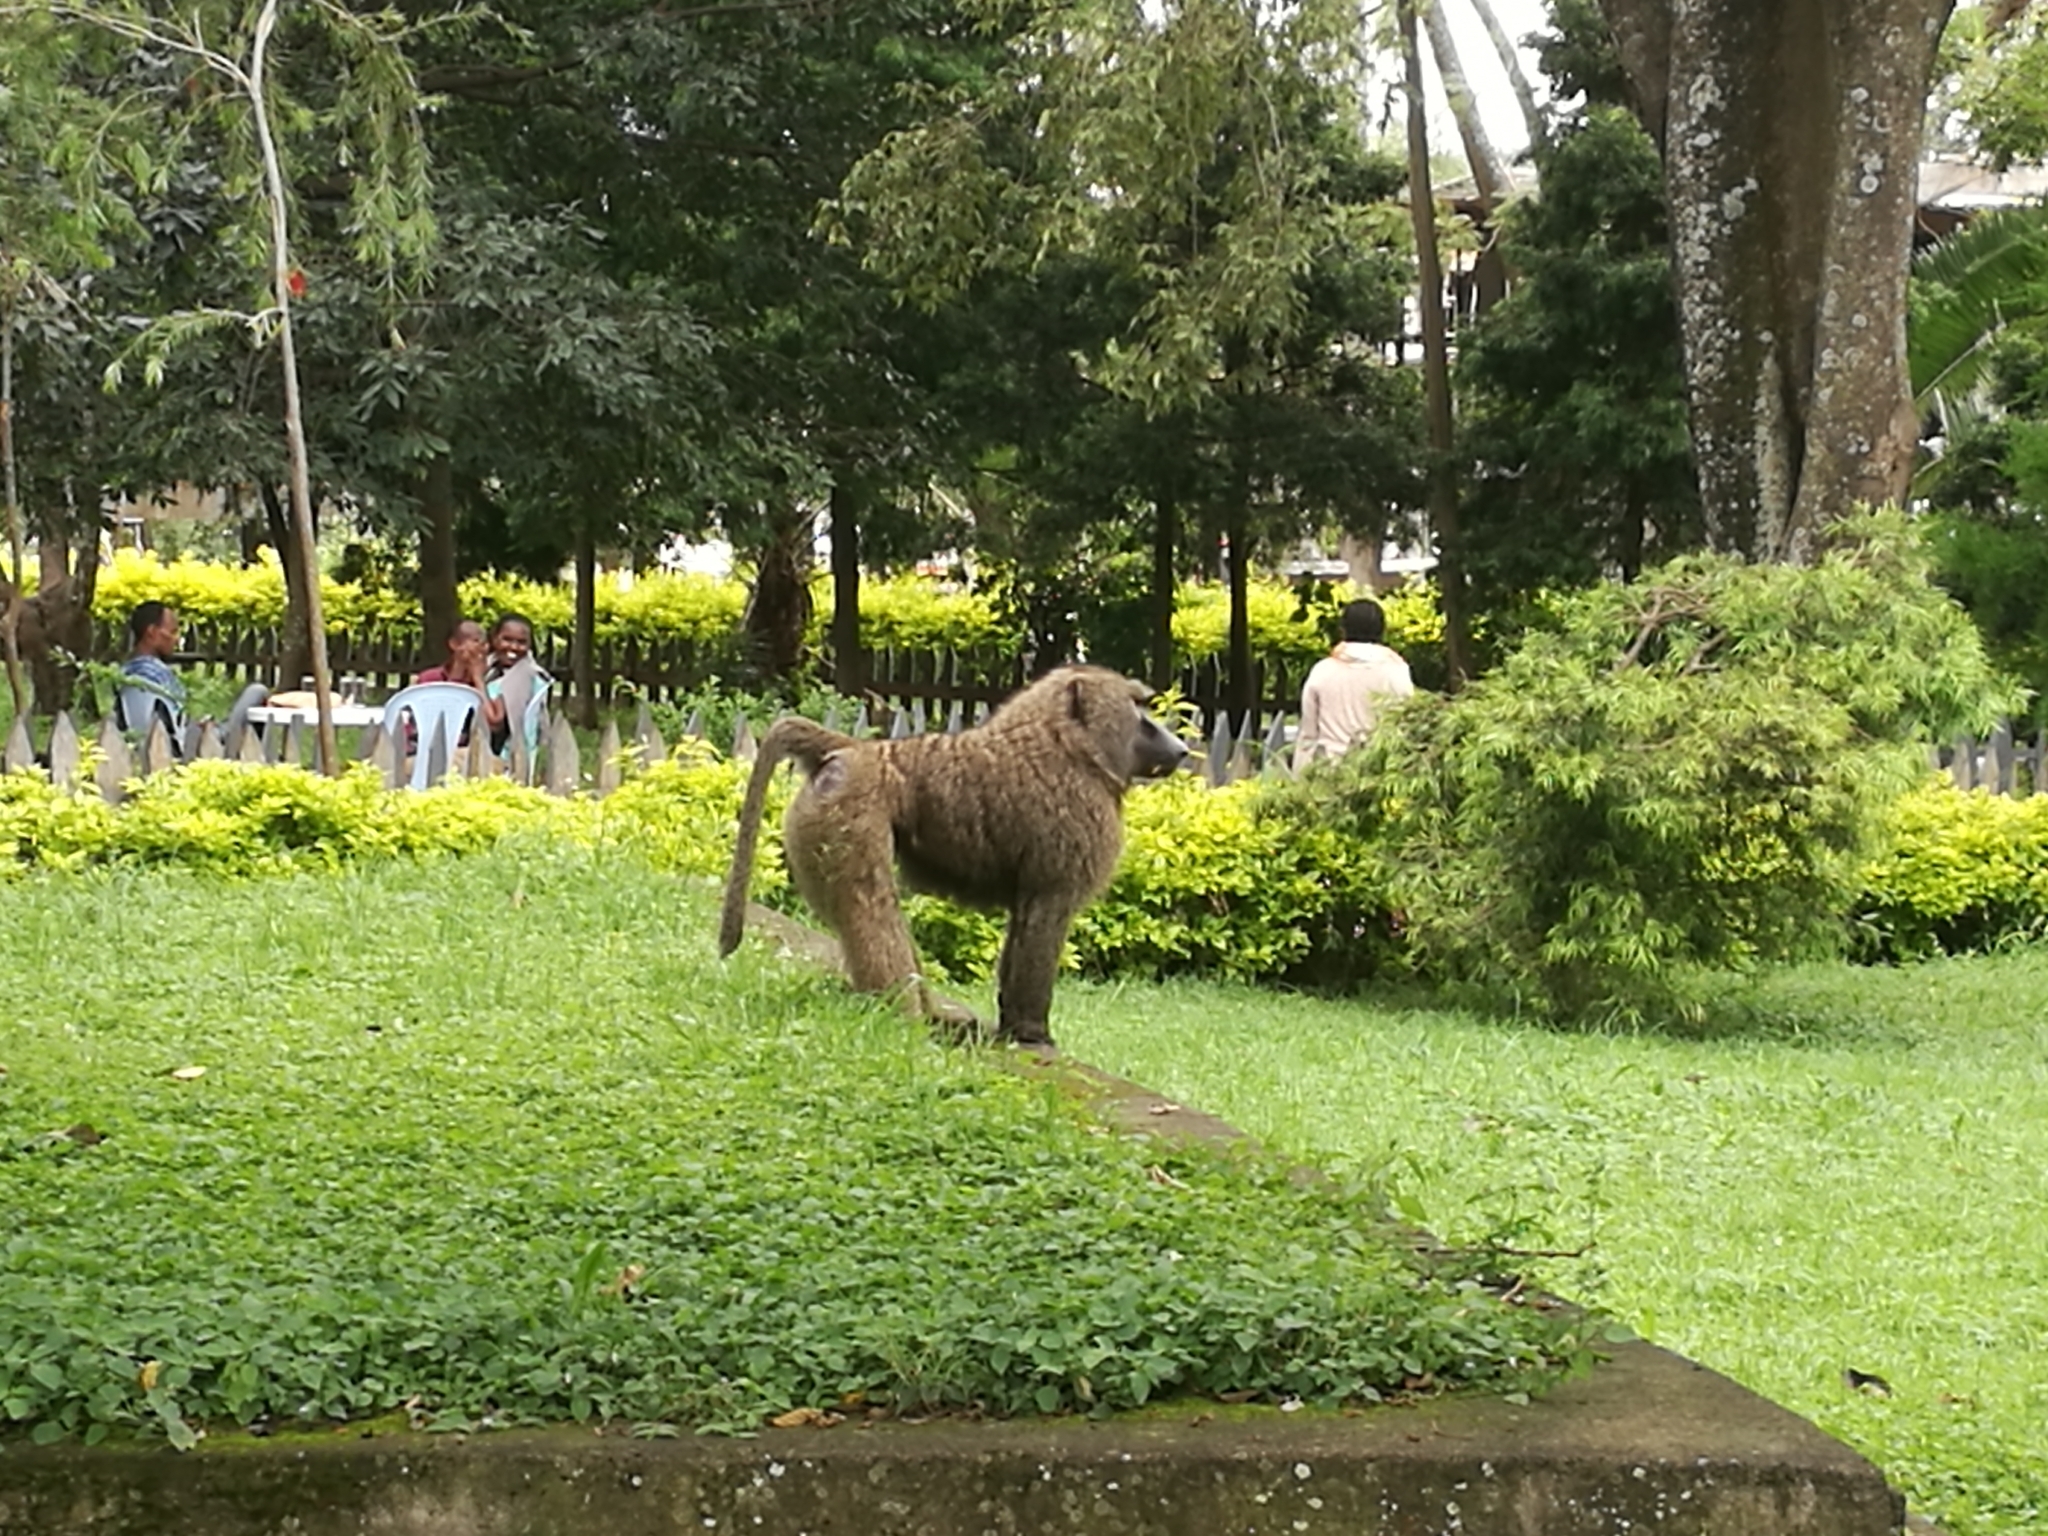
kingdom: Animalia
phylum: Chordata
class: Mammalia
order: Primates
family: Cercopithecidae
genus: Papio
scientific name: Papio anubis
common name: Olive baboon
